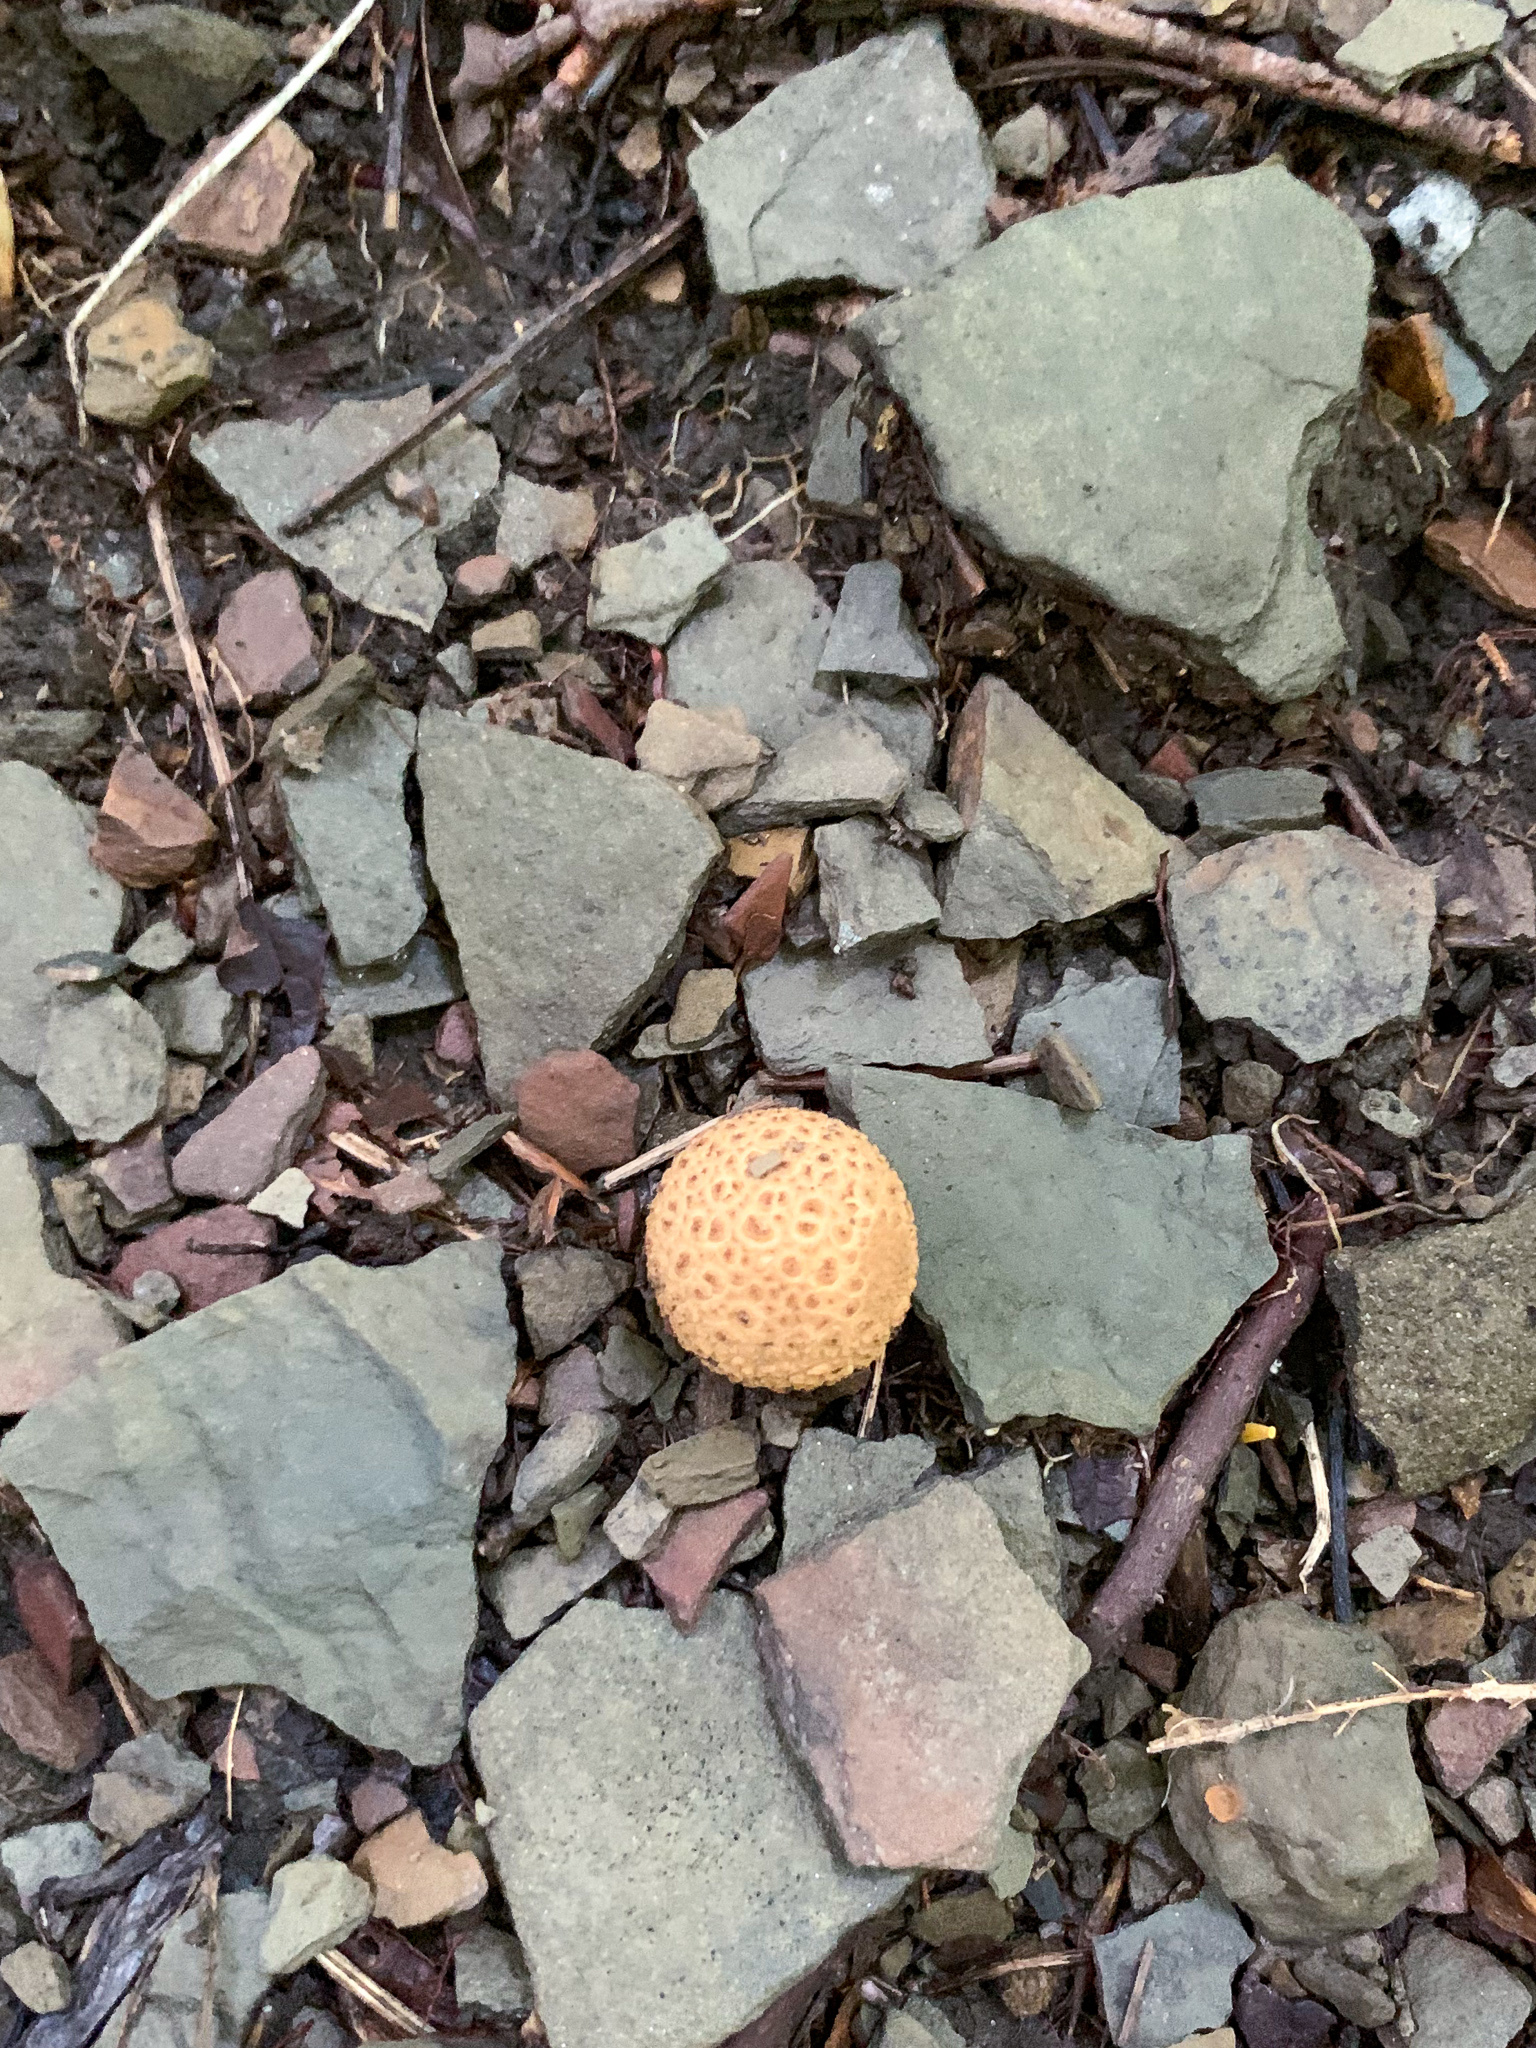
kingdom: Fungi
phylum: Basidiomycota
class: Agaricomycetes
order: Boletales
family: Sclerodermataceae
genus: Scleroderma
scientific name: Scleroderma citrinum
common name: Common earthball
